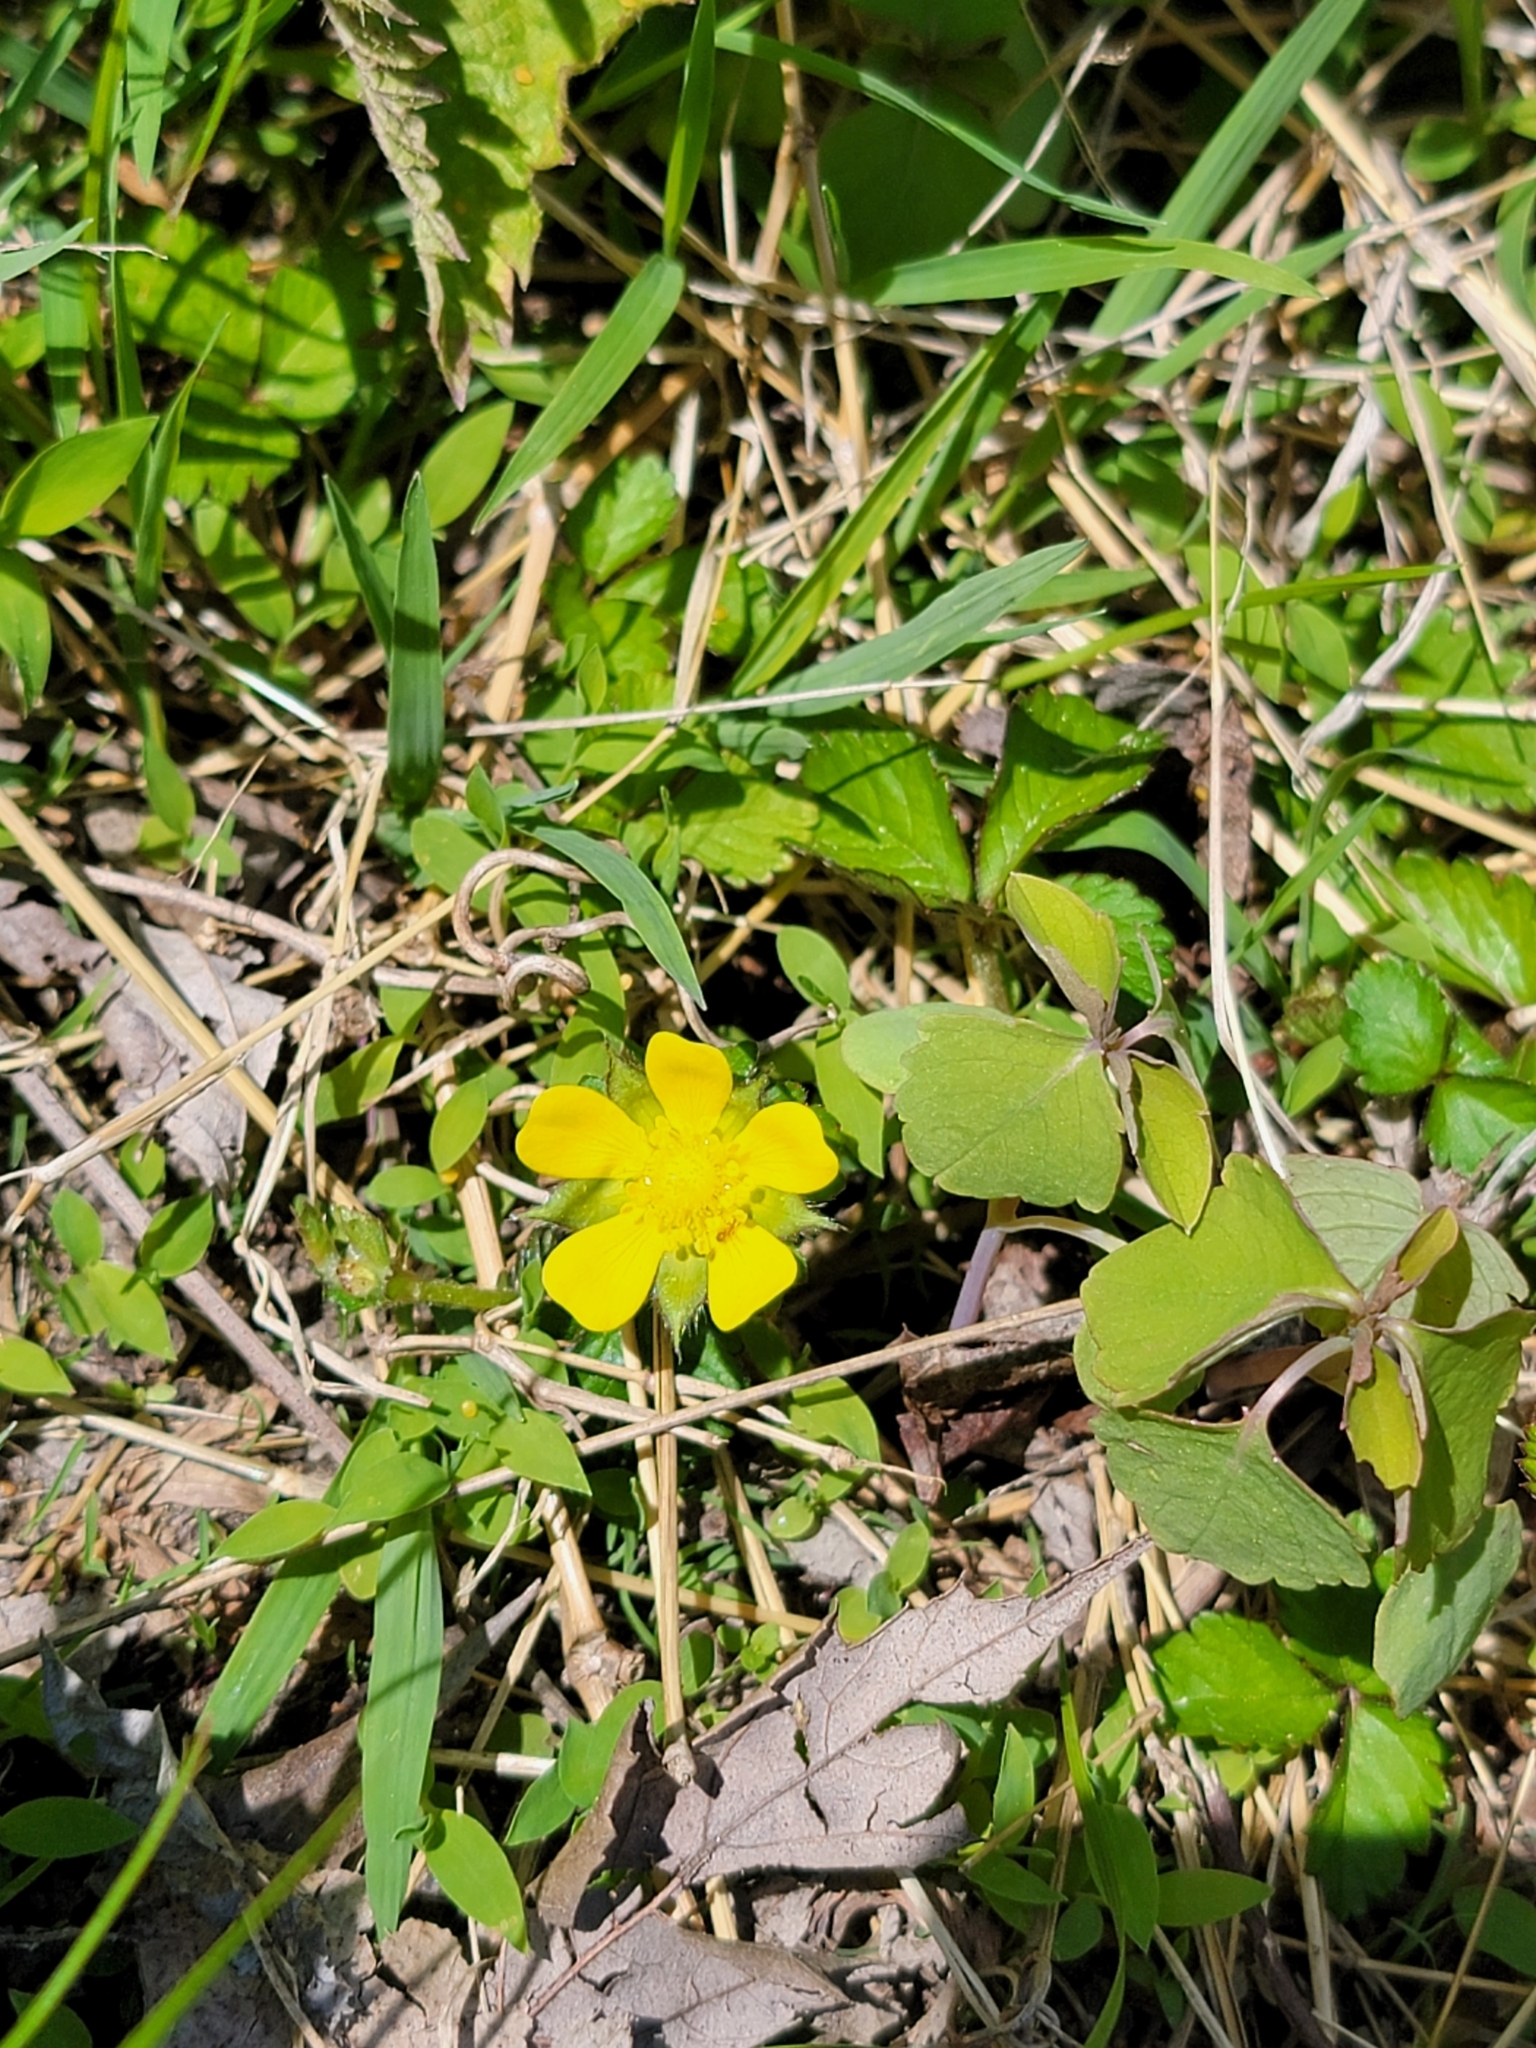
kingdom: Plantae
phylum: Tracheophyta
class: Magnoliopsida
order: Rosales
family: Rosaceae
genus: Potentilla
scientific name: Potentilla indica
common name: Yellow-flowered strawberry
